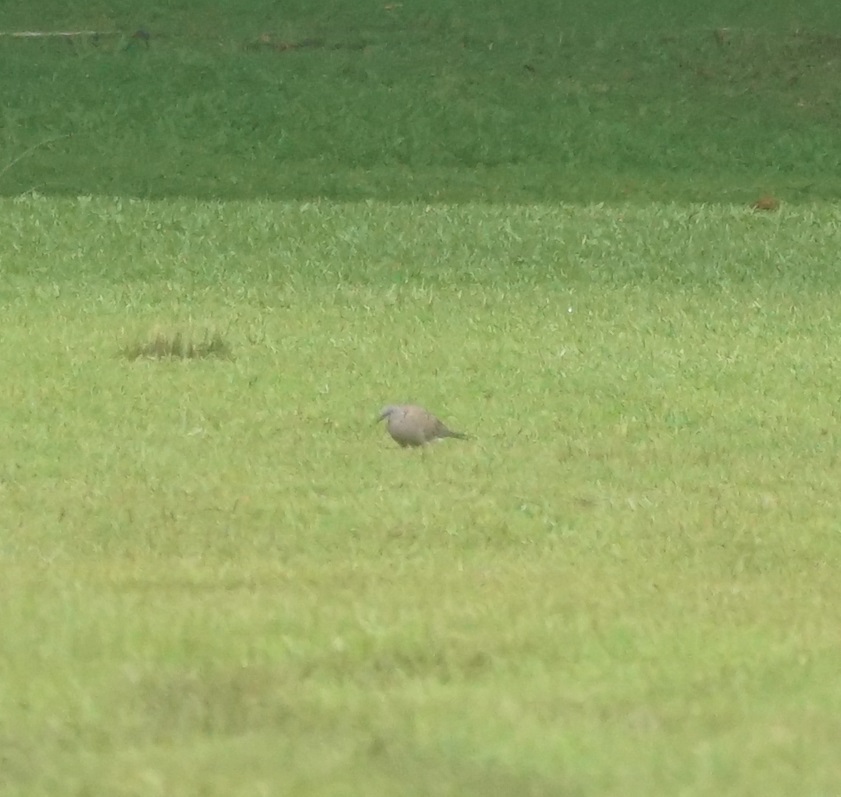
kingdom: Animalia
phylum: Chordata
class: Aves
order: Columbiformes
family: Columbidae
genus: Spilopelia
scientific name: Spilopelia chinensis
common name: Spotted dove
